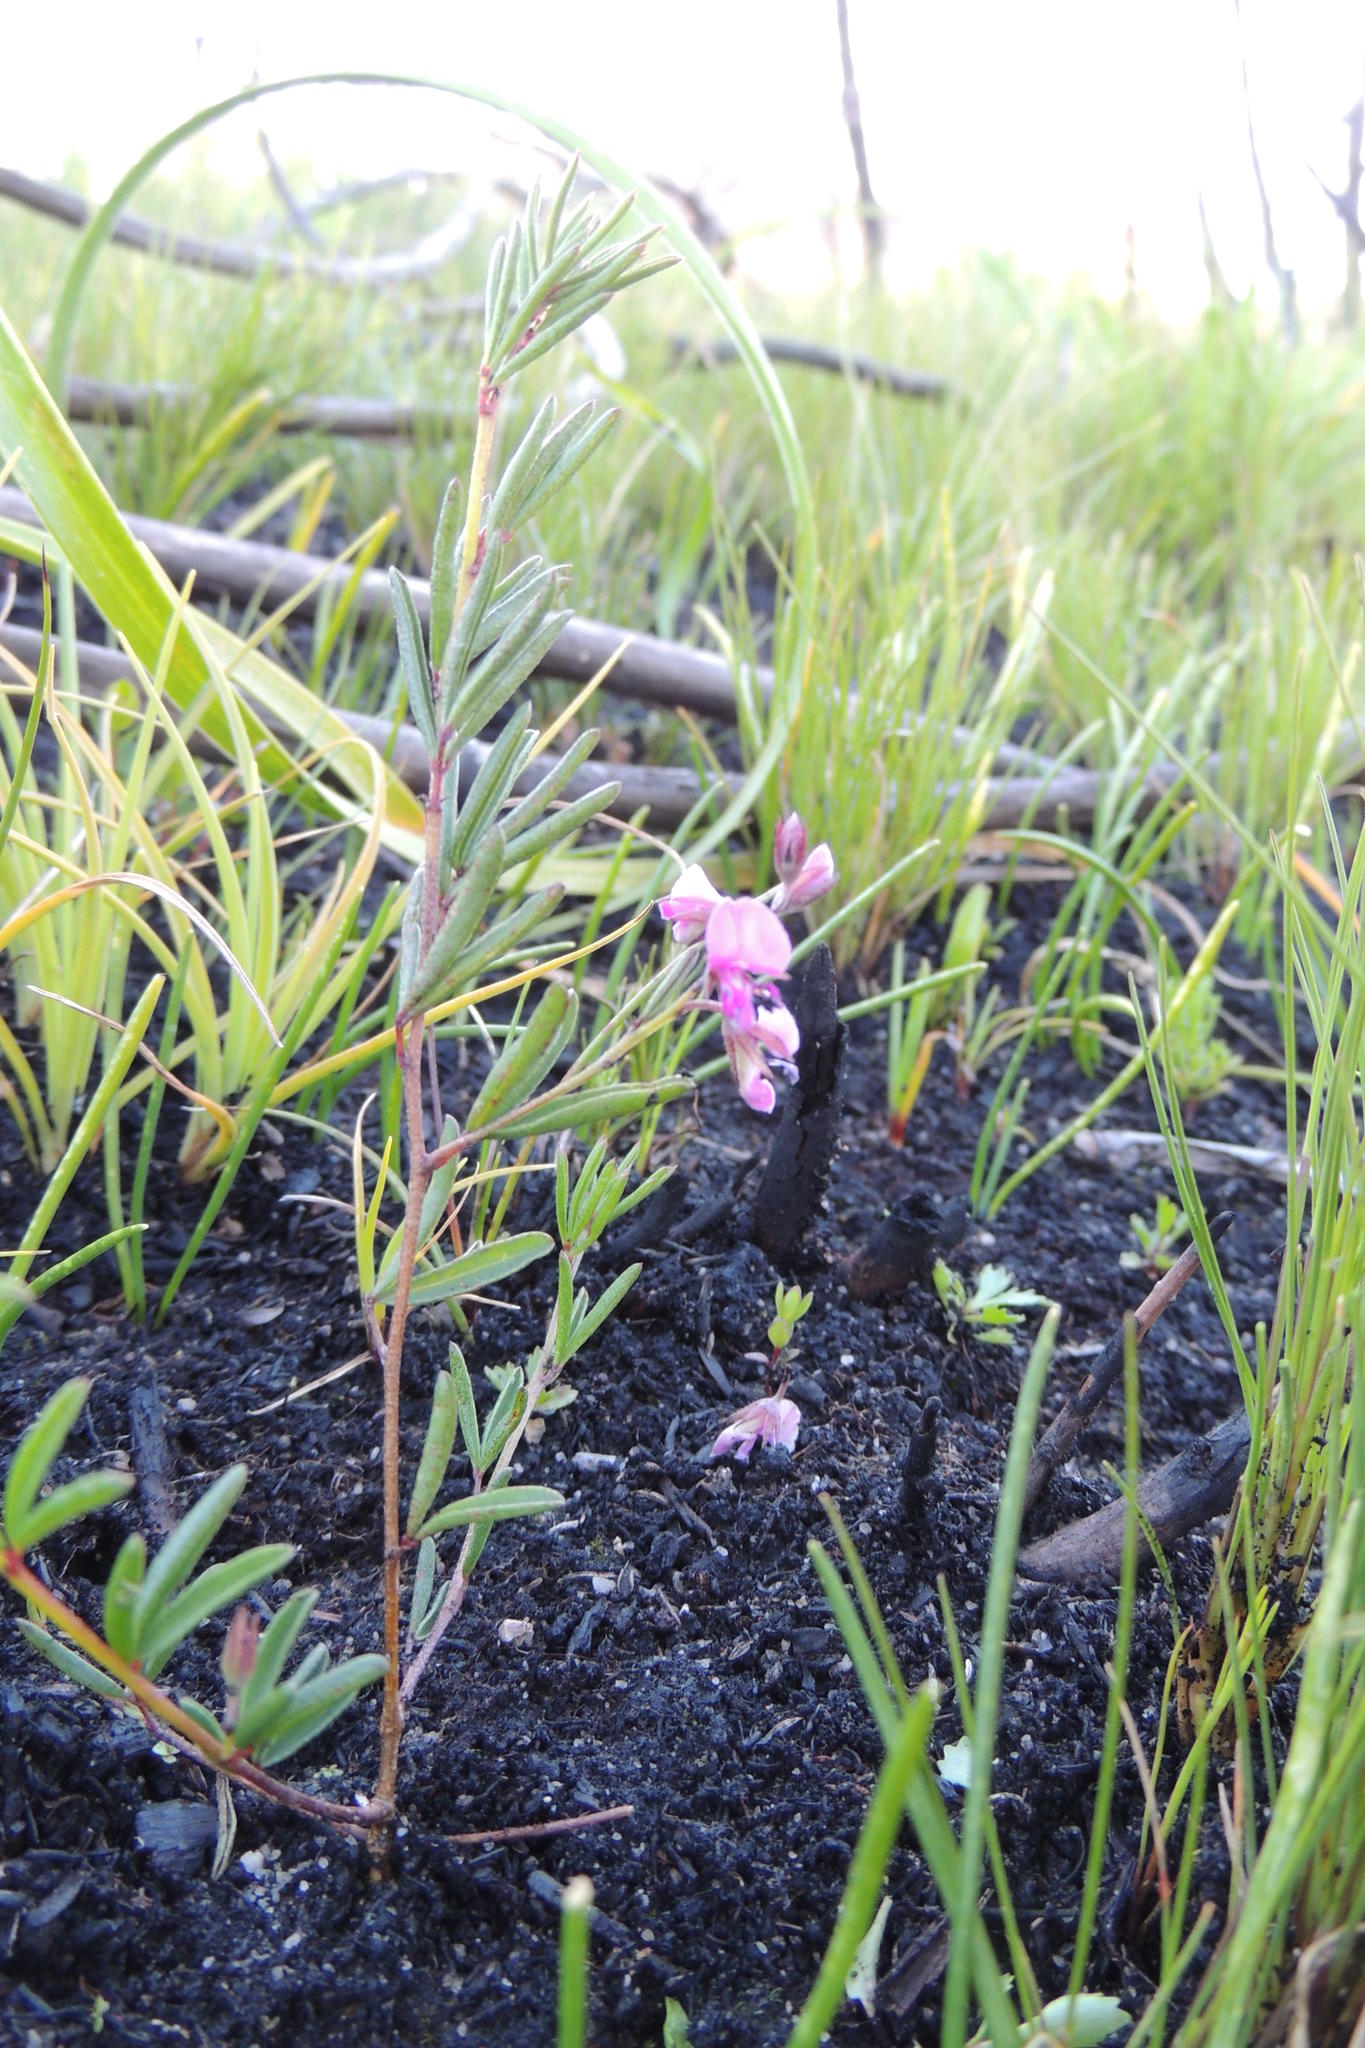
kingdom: Plantae
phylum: Tracheophyta
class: Magnoliopsida
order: Fabales
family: Fabaceae
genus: Indigofera
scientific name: Indigofera concava
